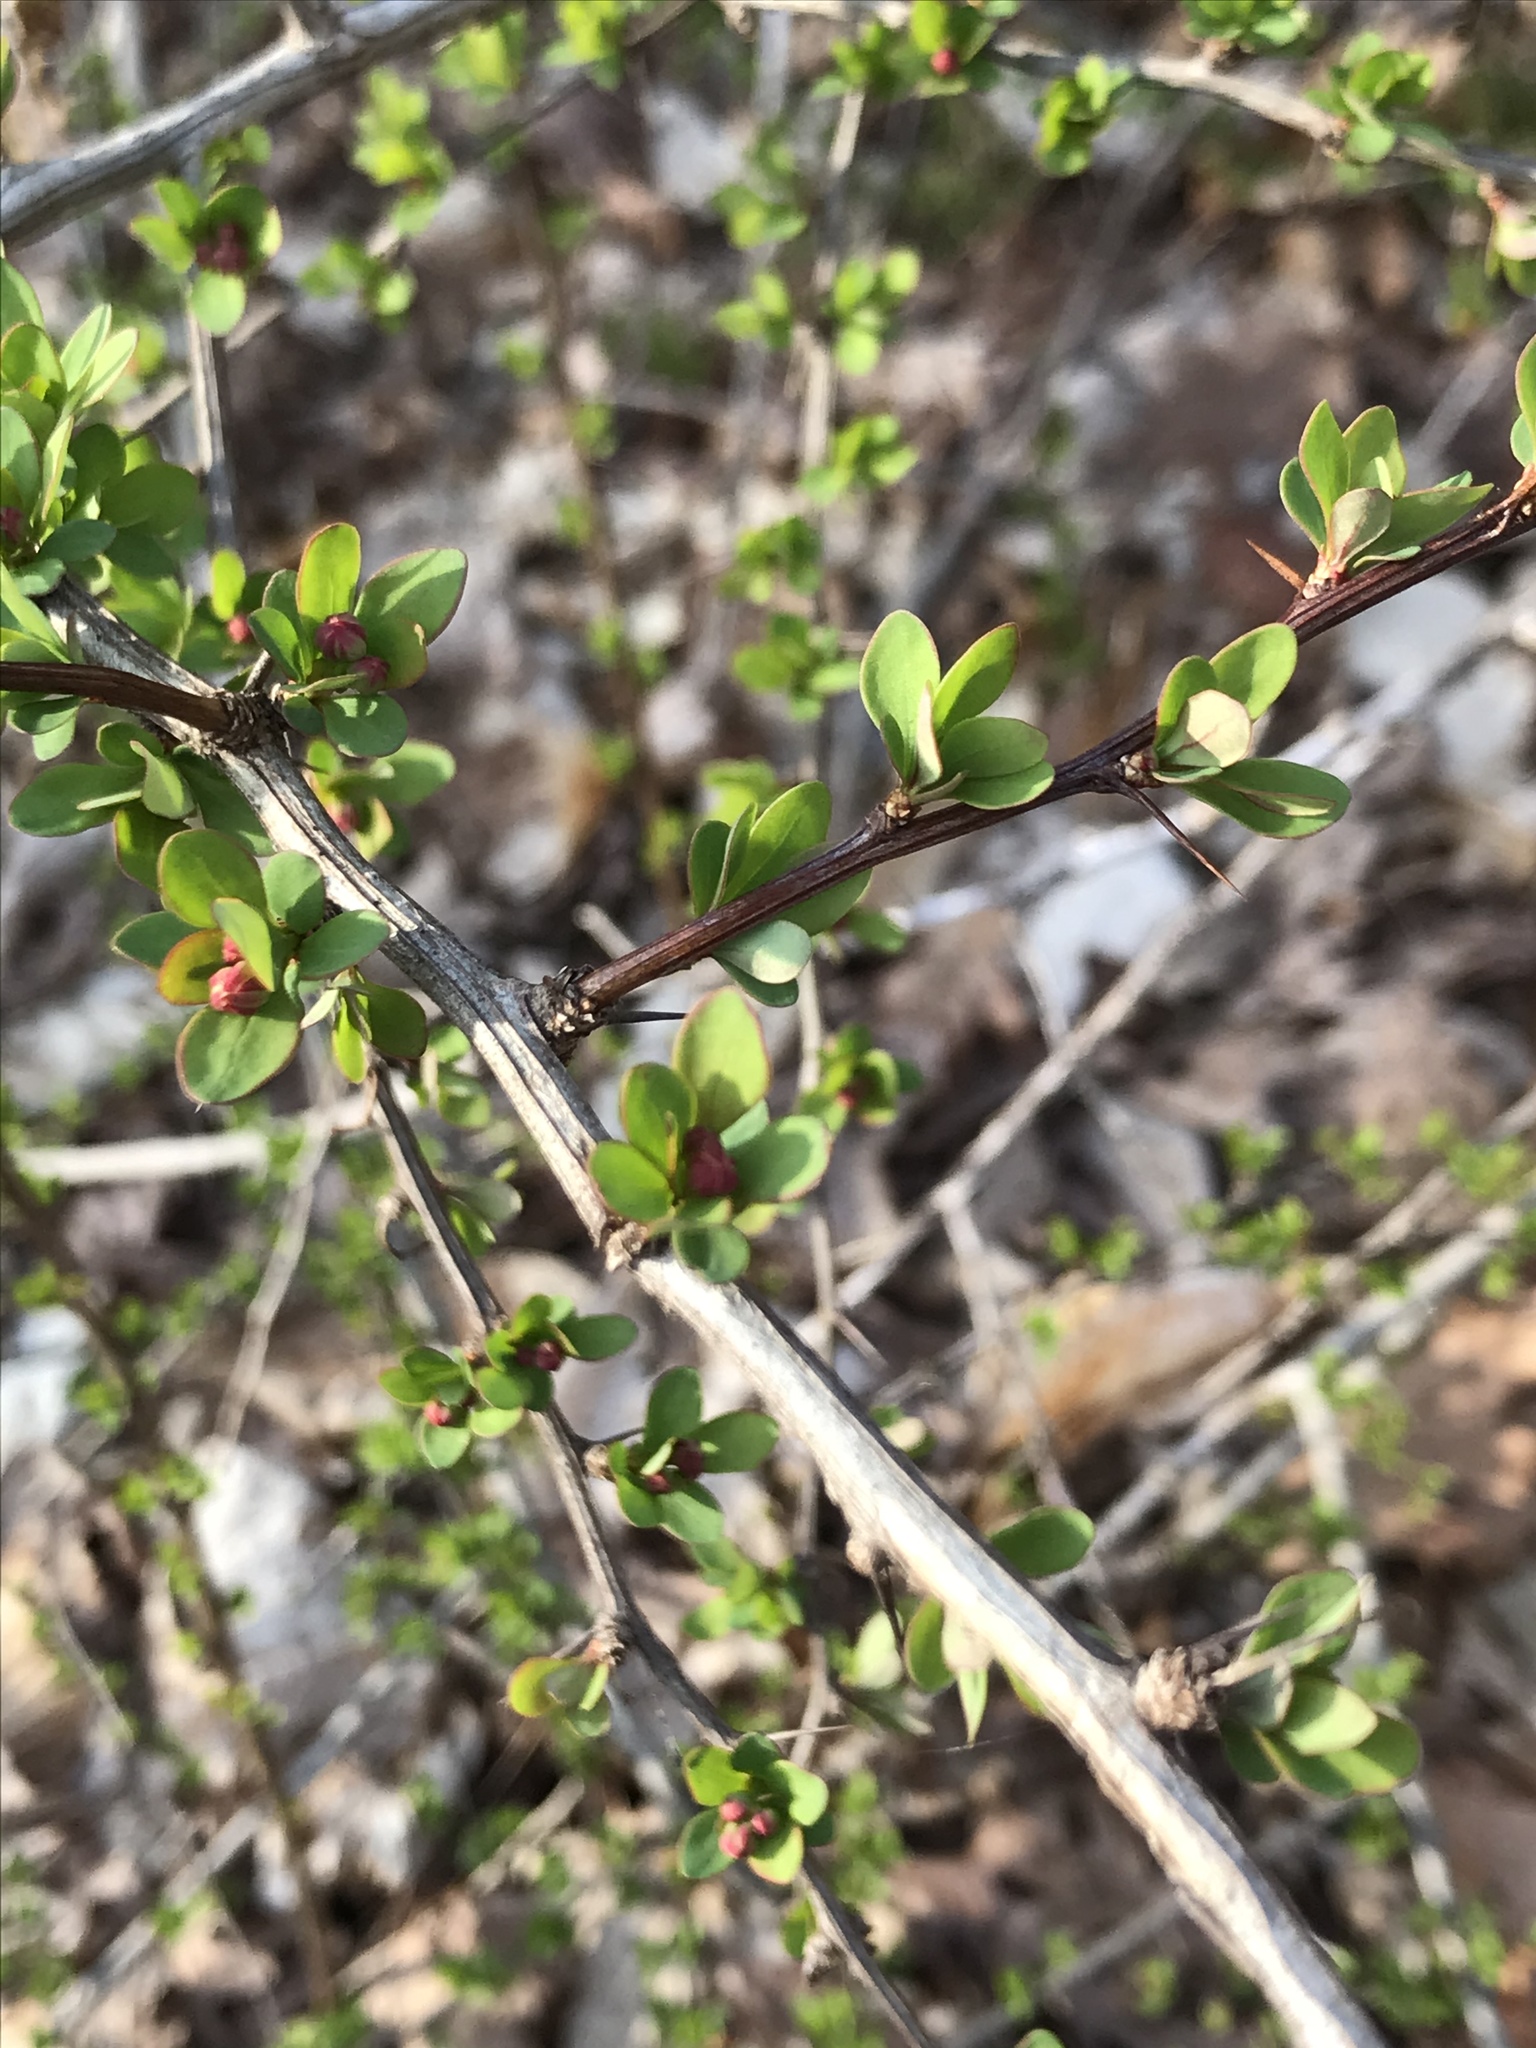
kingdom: Plantae
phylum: Tracheophyta
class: Magnoliopsida
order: Ranunculales
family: Berberidaceae
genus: Berberis
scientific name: Berberis thunbergii
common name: Japanese barberry
